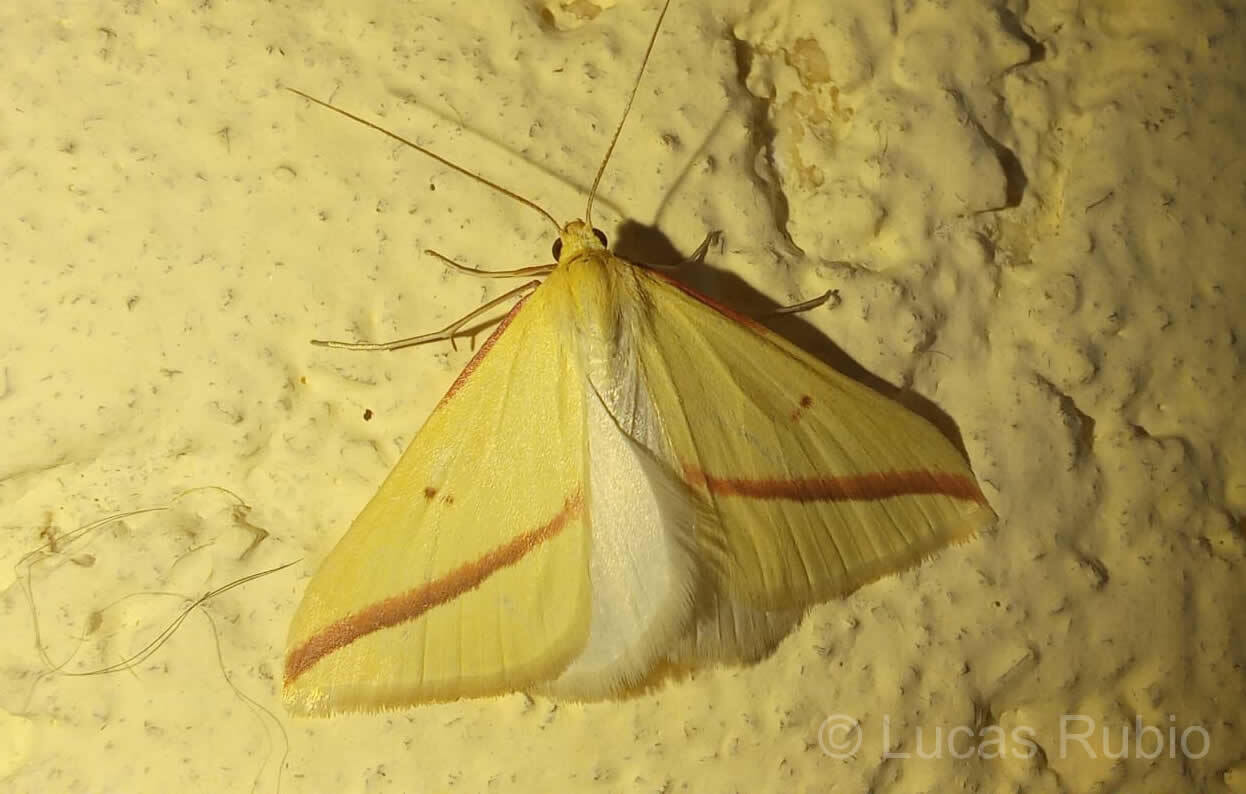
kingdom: Animalia
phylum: Arthropoda
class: Insecta
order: Lepidoptera
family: Geometridae
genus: Rhodometra
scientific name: Rhodometra sacraria
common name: Vestal
